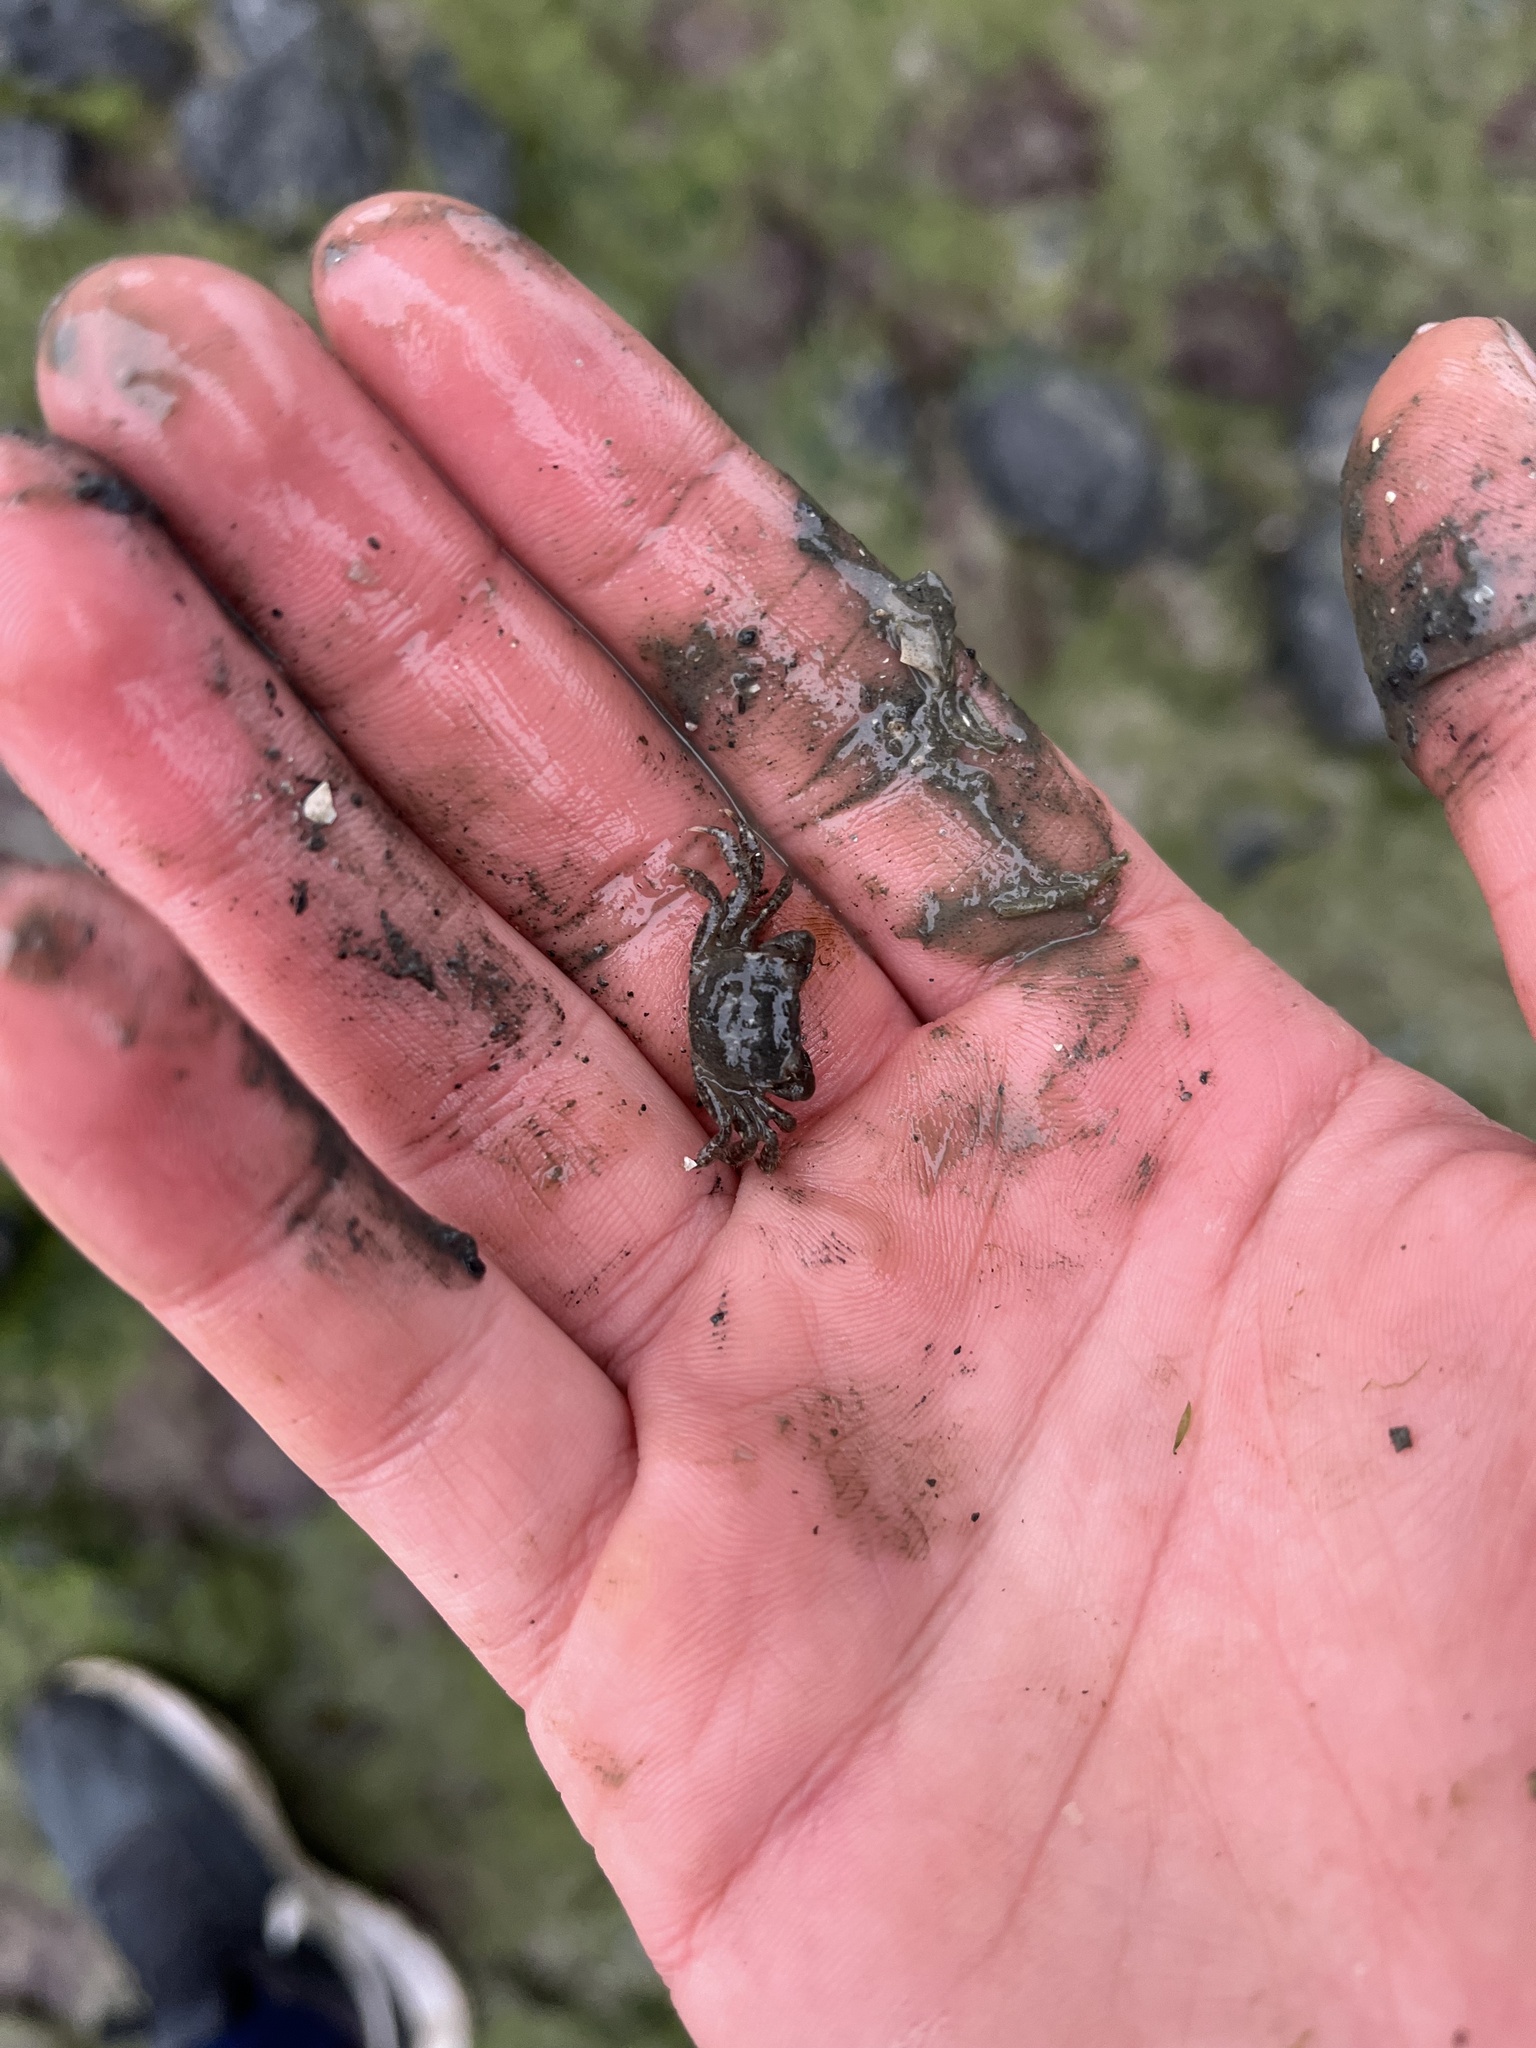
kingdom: Animalia
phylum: Arthropoda
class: Malacostraca
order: Decapoda
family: Varunidae
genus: Hemigrapsus
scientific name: Hemigrapsus oregonensis
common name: Yellow shore crab
